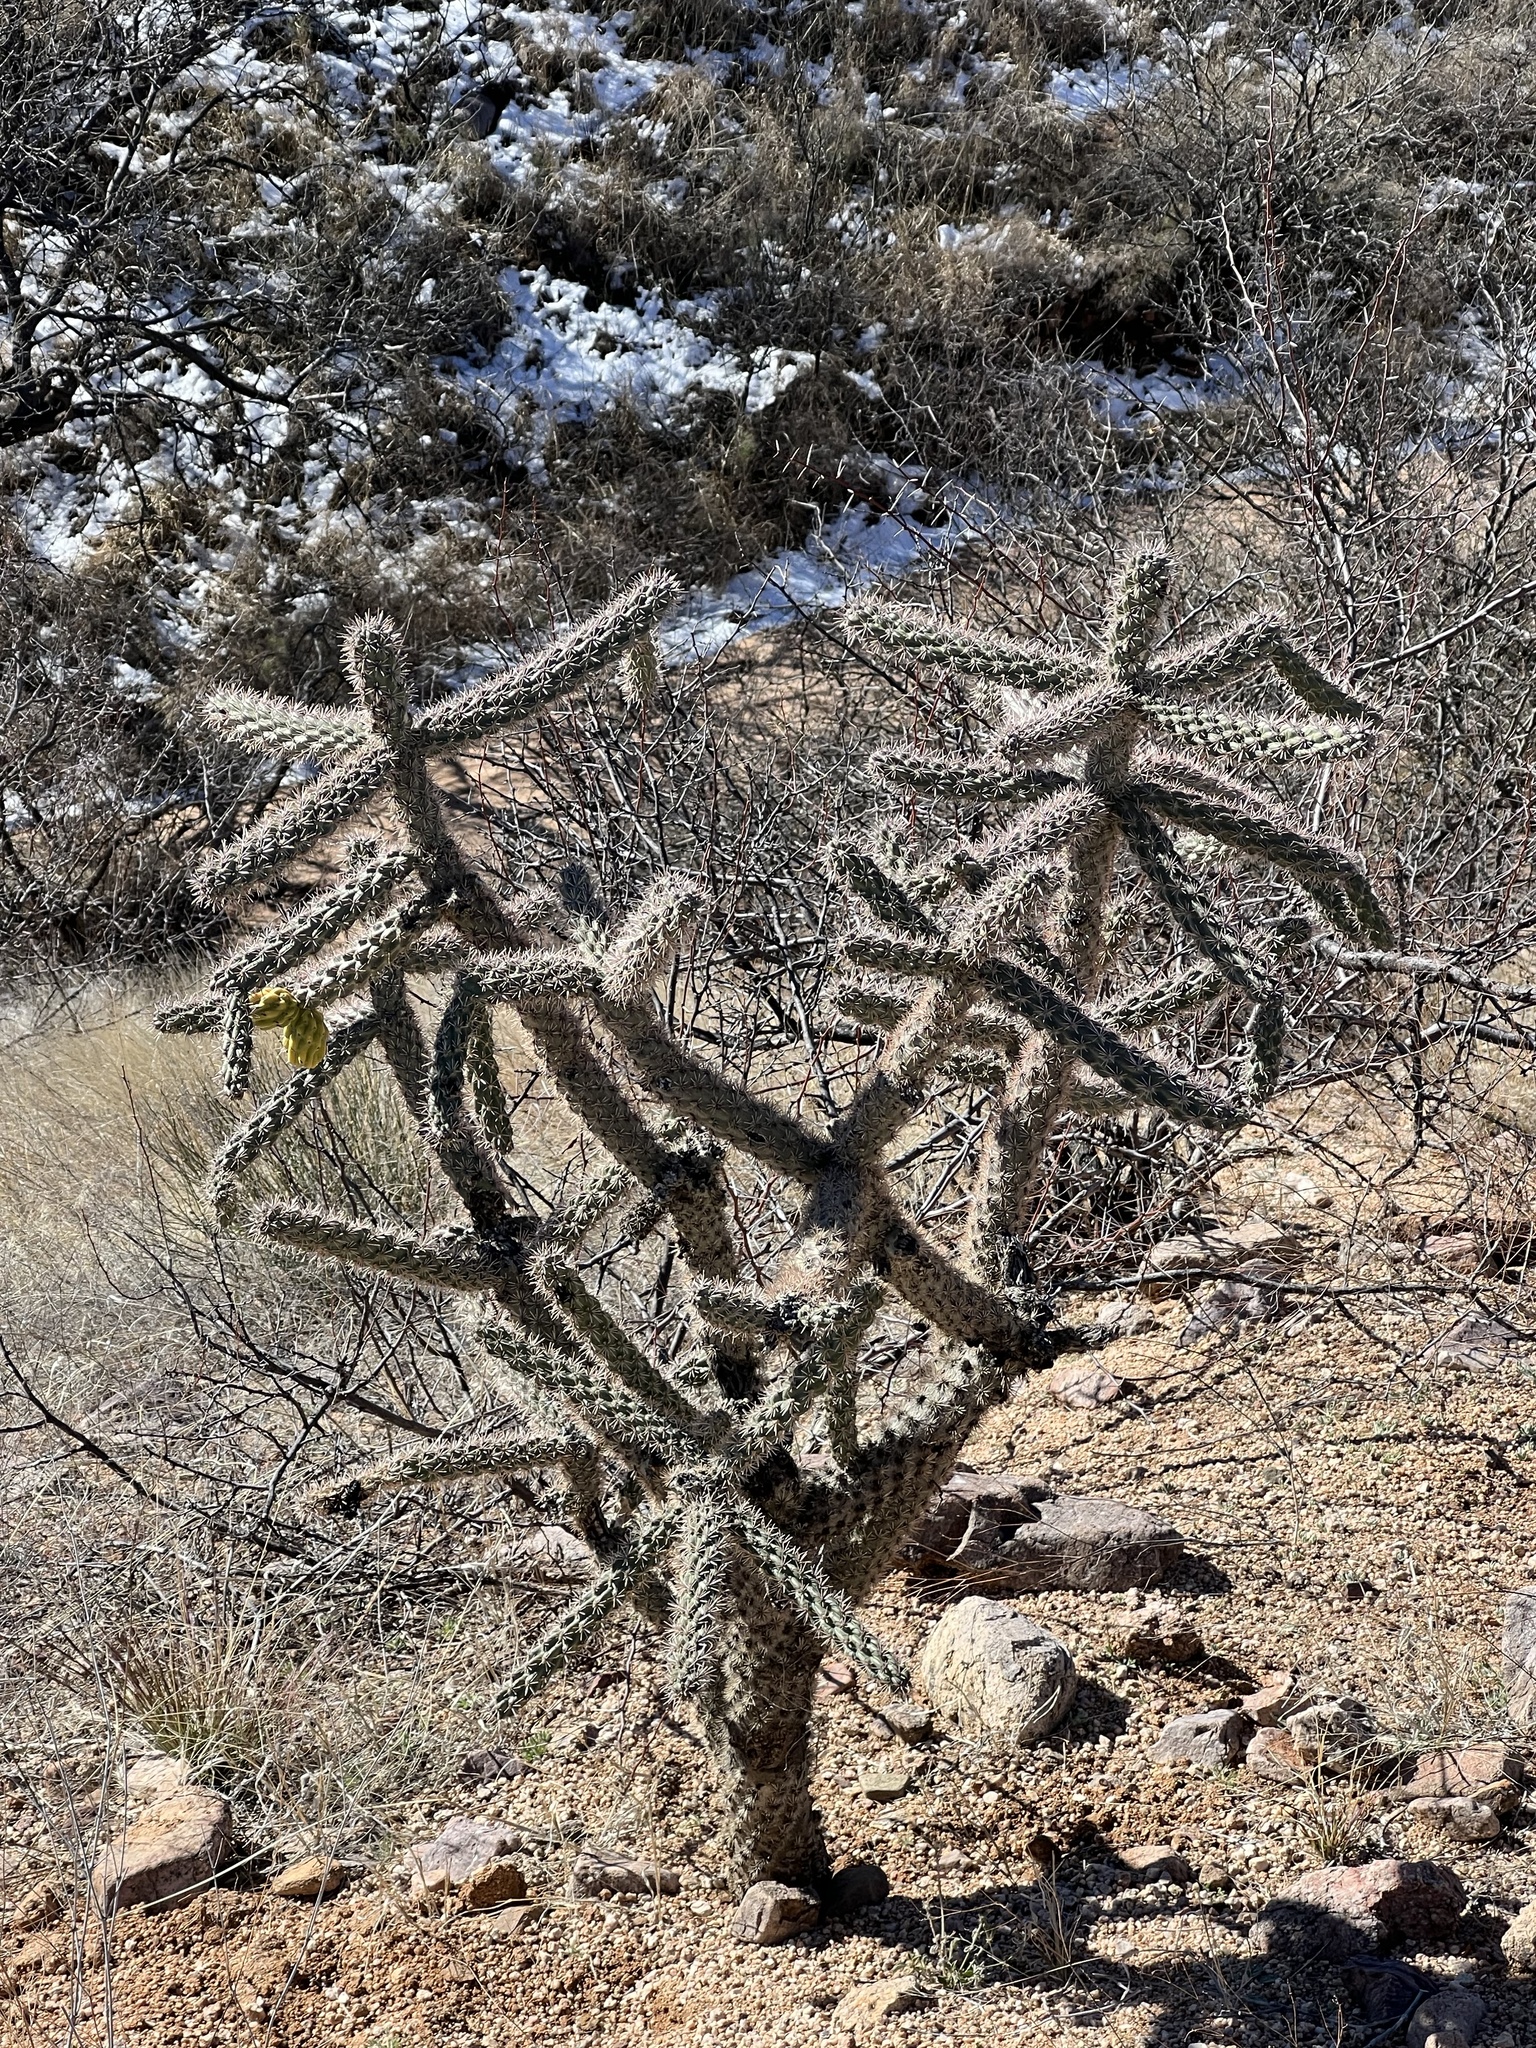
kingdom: Plantae
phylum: Tracheophyta
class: Magnoliopsida
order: Caryophyllales
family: Cactaceae
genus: Cylindropuntia
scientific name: Cylindropuntia imbricata
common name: Candelabrum cactus
